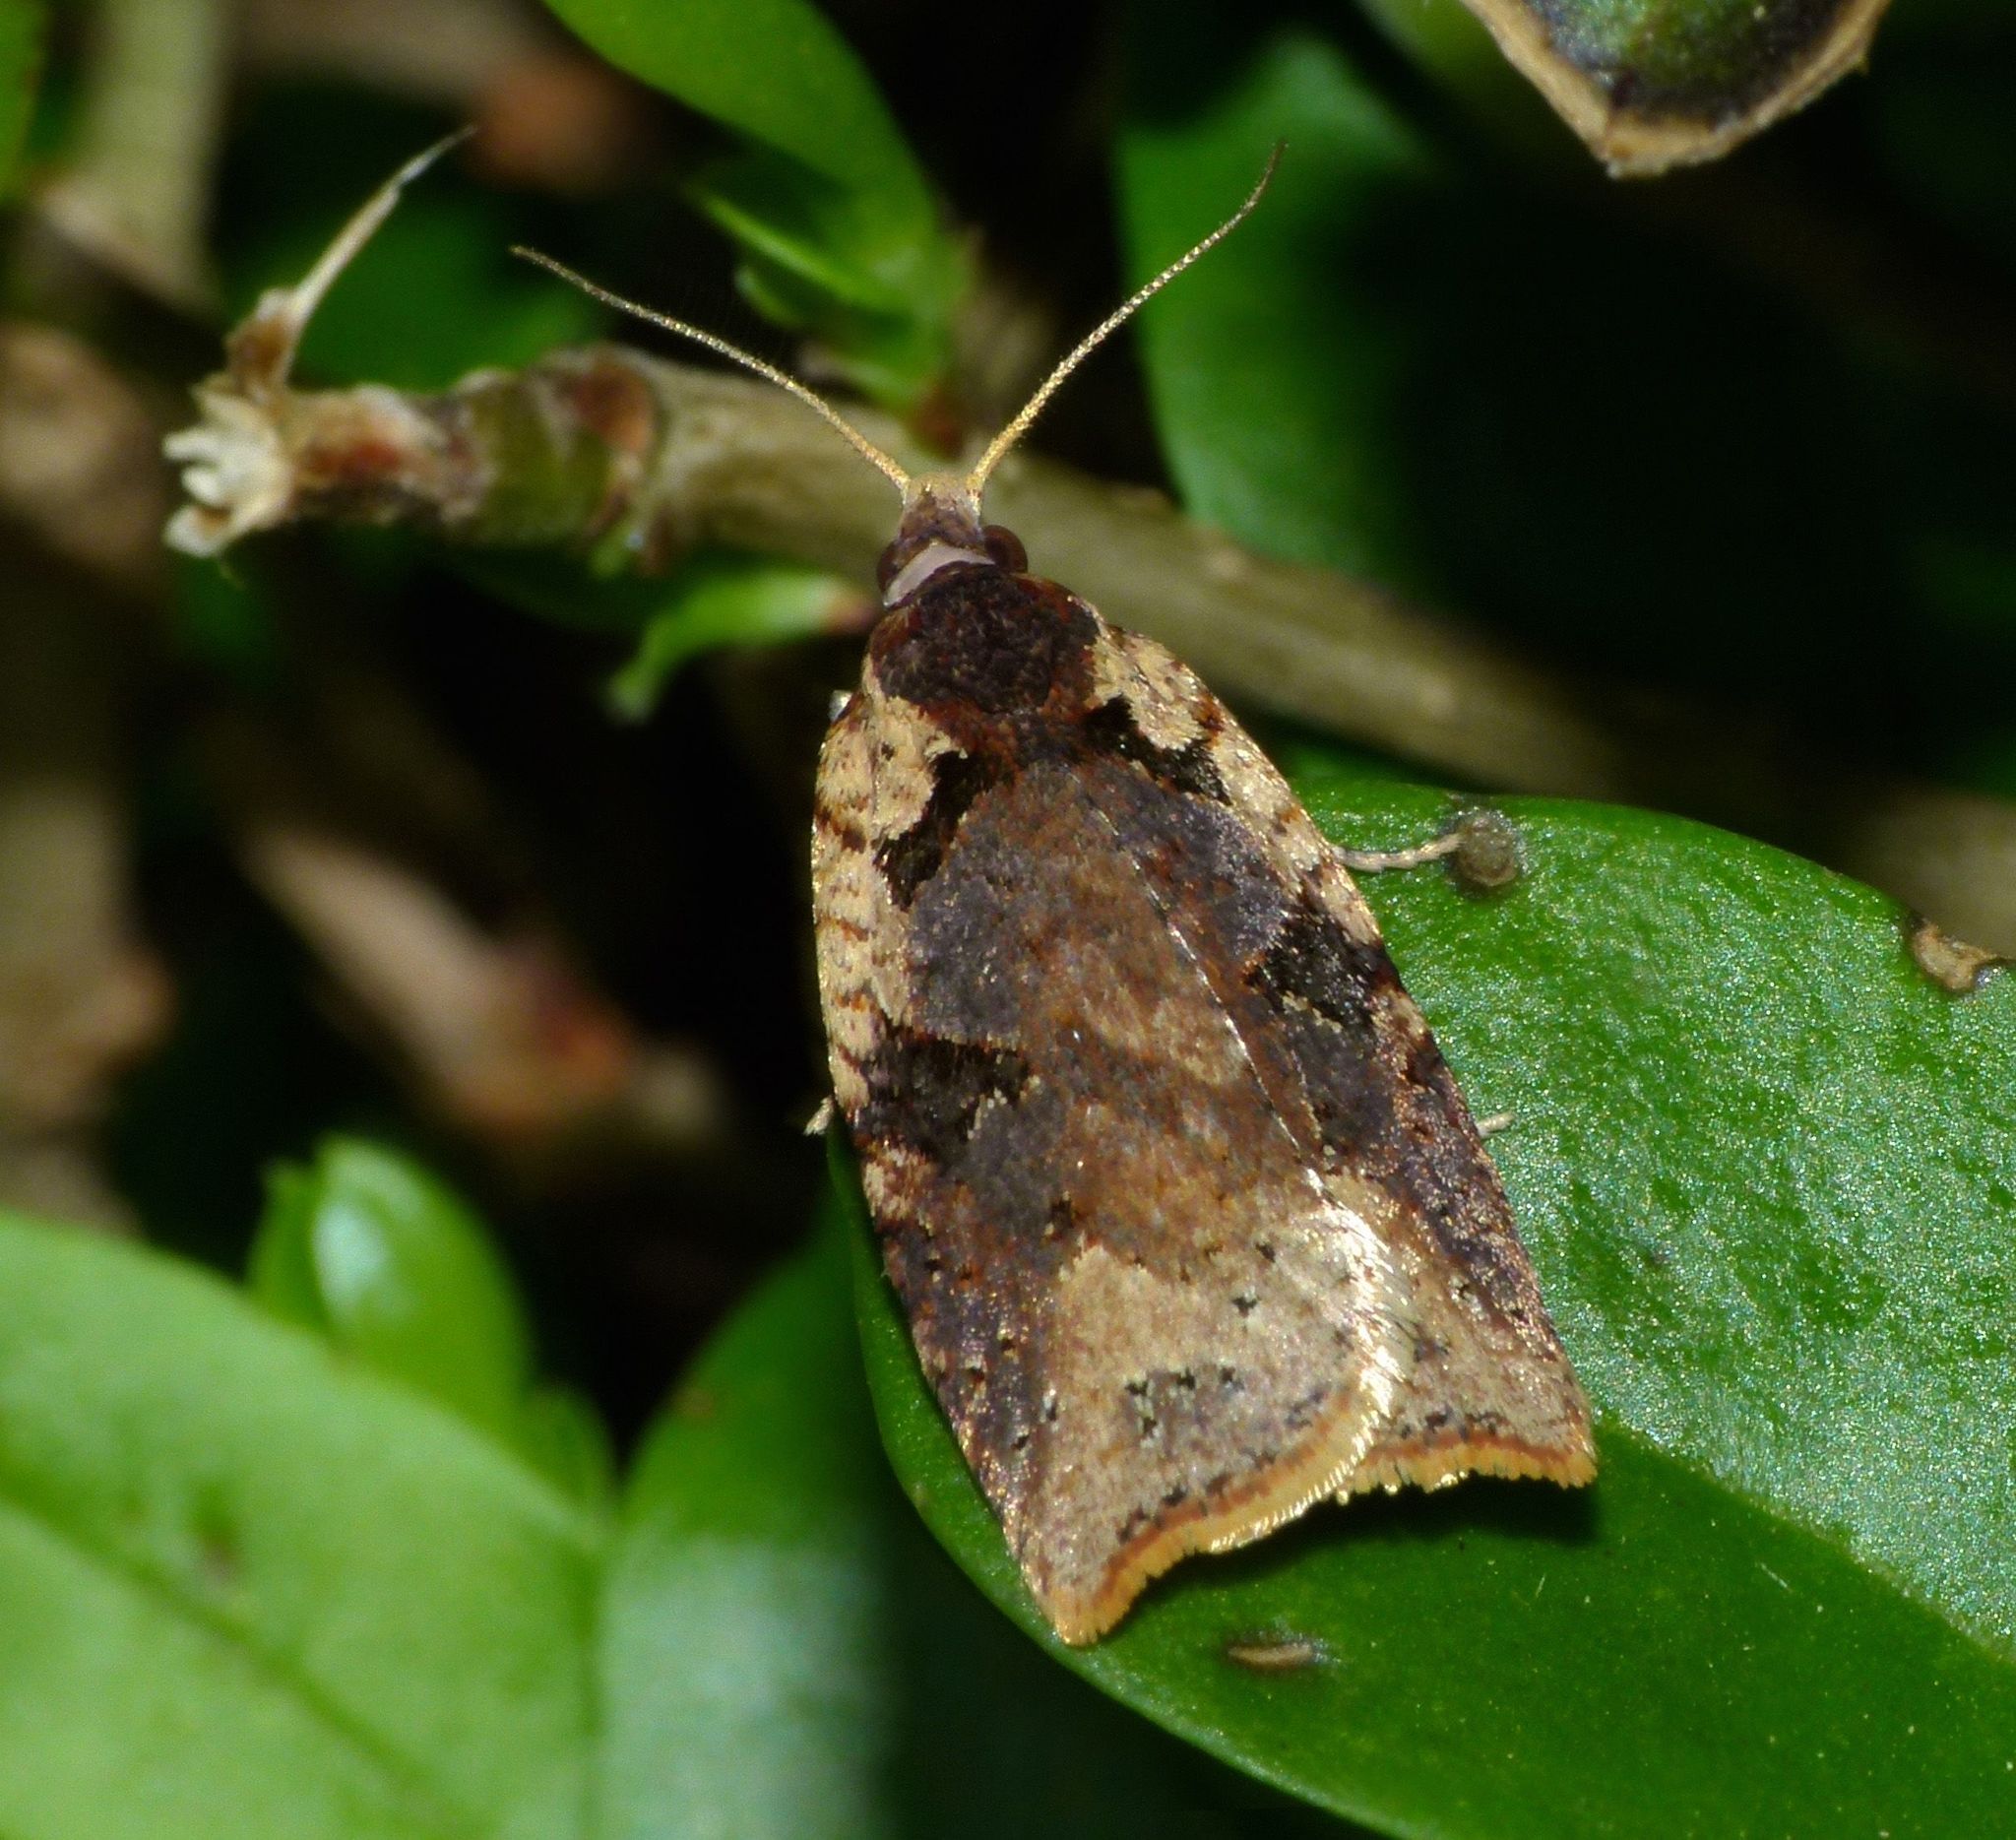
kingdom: Animalia
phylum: Arthropoda
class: Insecta
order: Lepidoptera
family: Tortricidae
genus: Ctenopseustis
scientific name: Ctenopseustis obliquana
